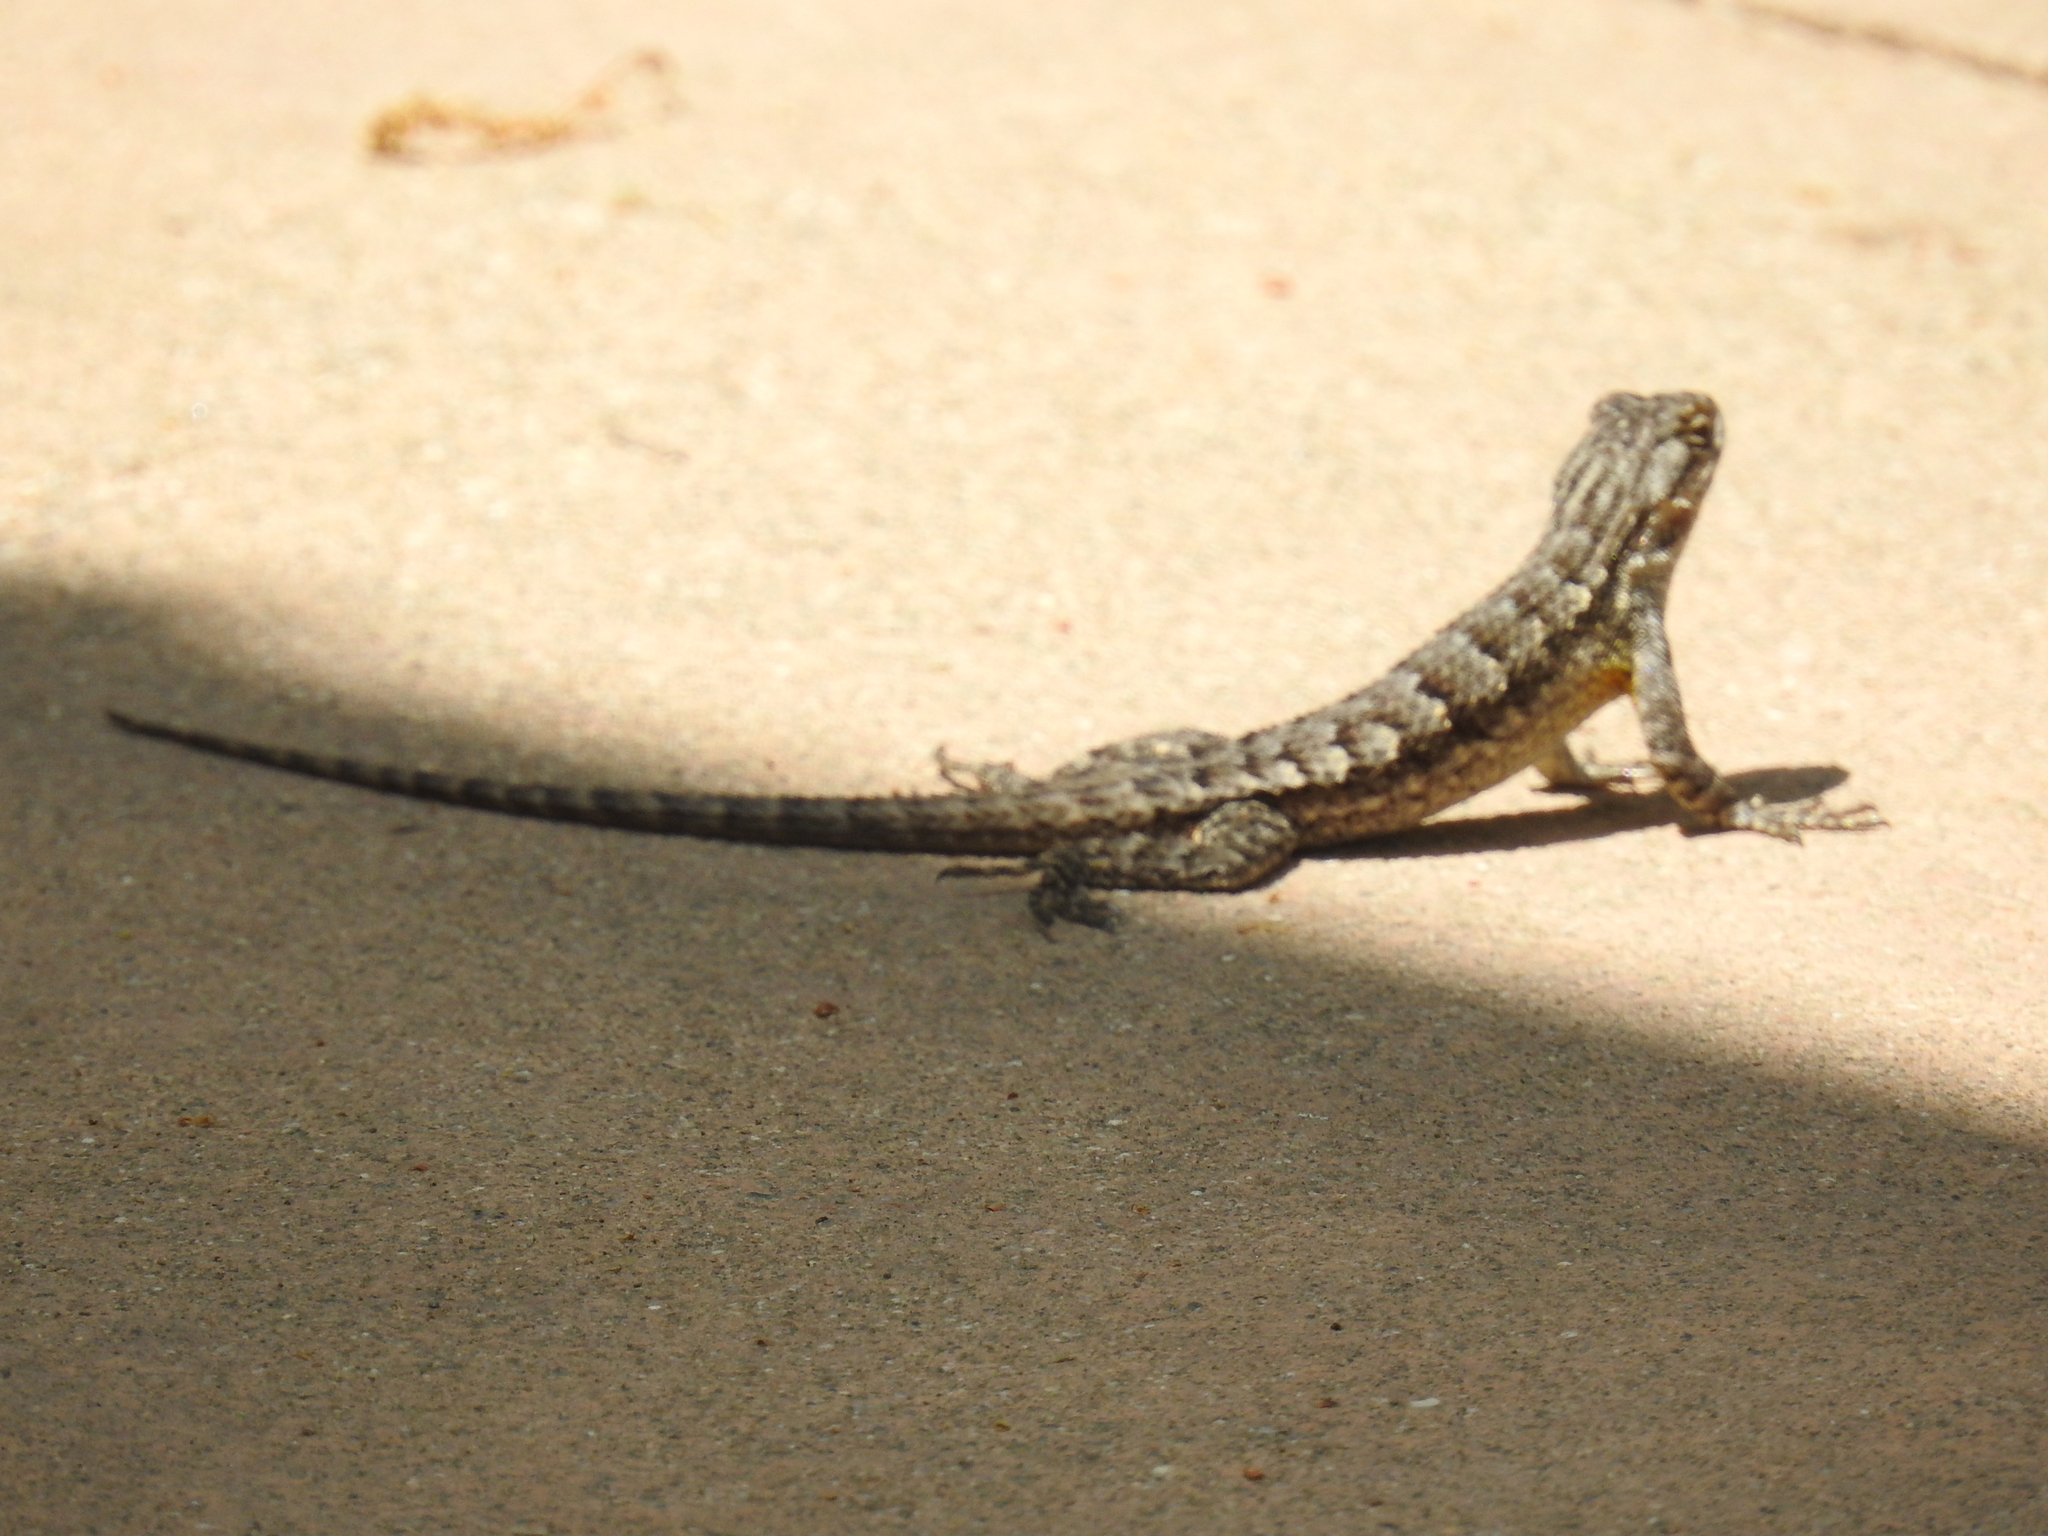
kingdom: Animalia
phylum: Chordata
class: Squamata
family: Phrynosomatidae
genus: Sceloporus
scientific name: Sceloporus occidentalis
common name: Western fence lizard
